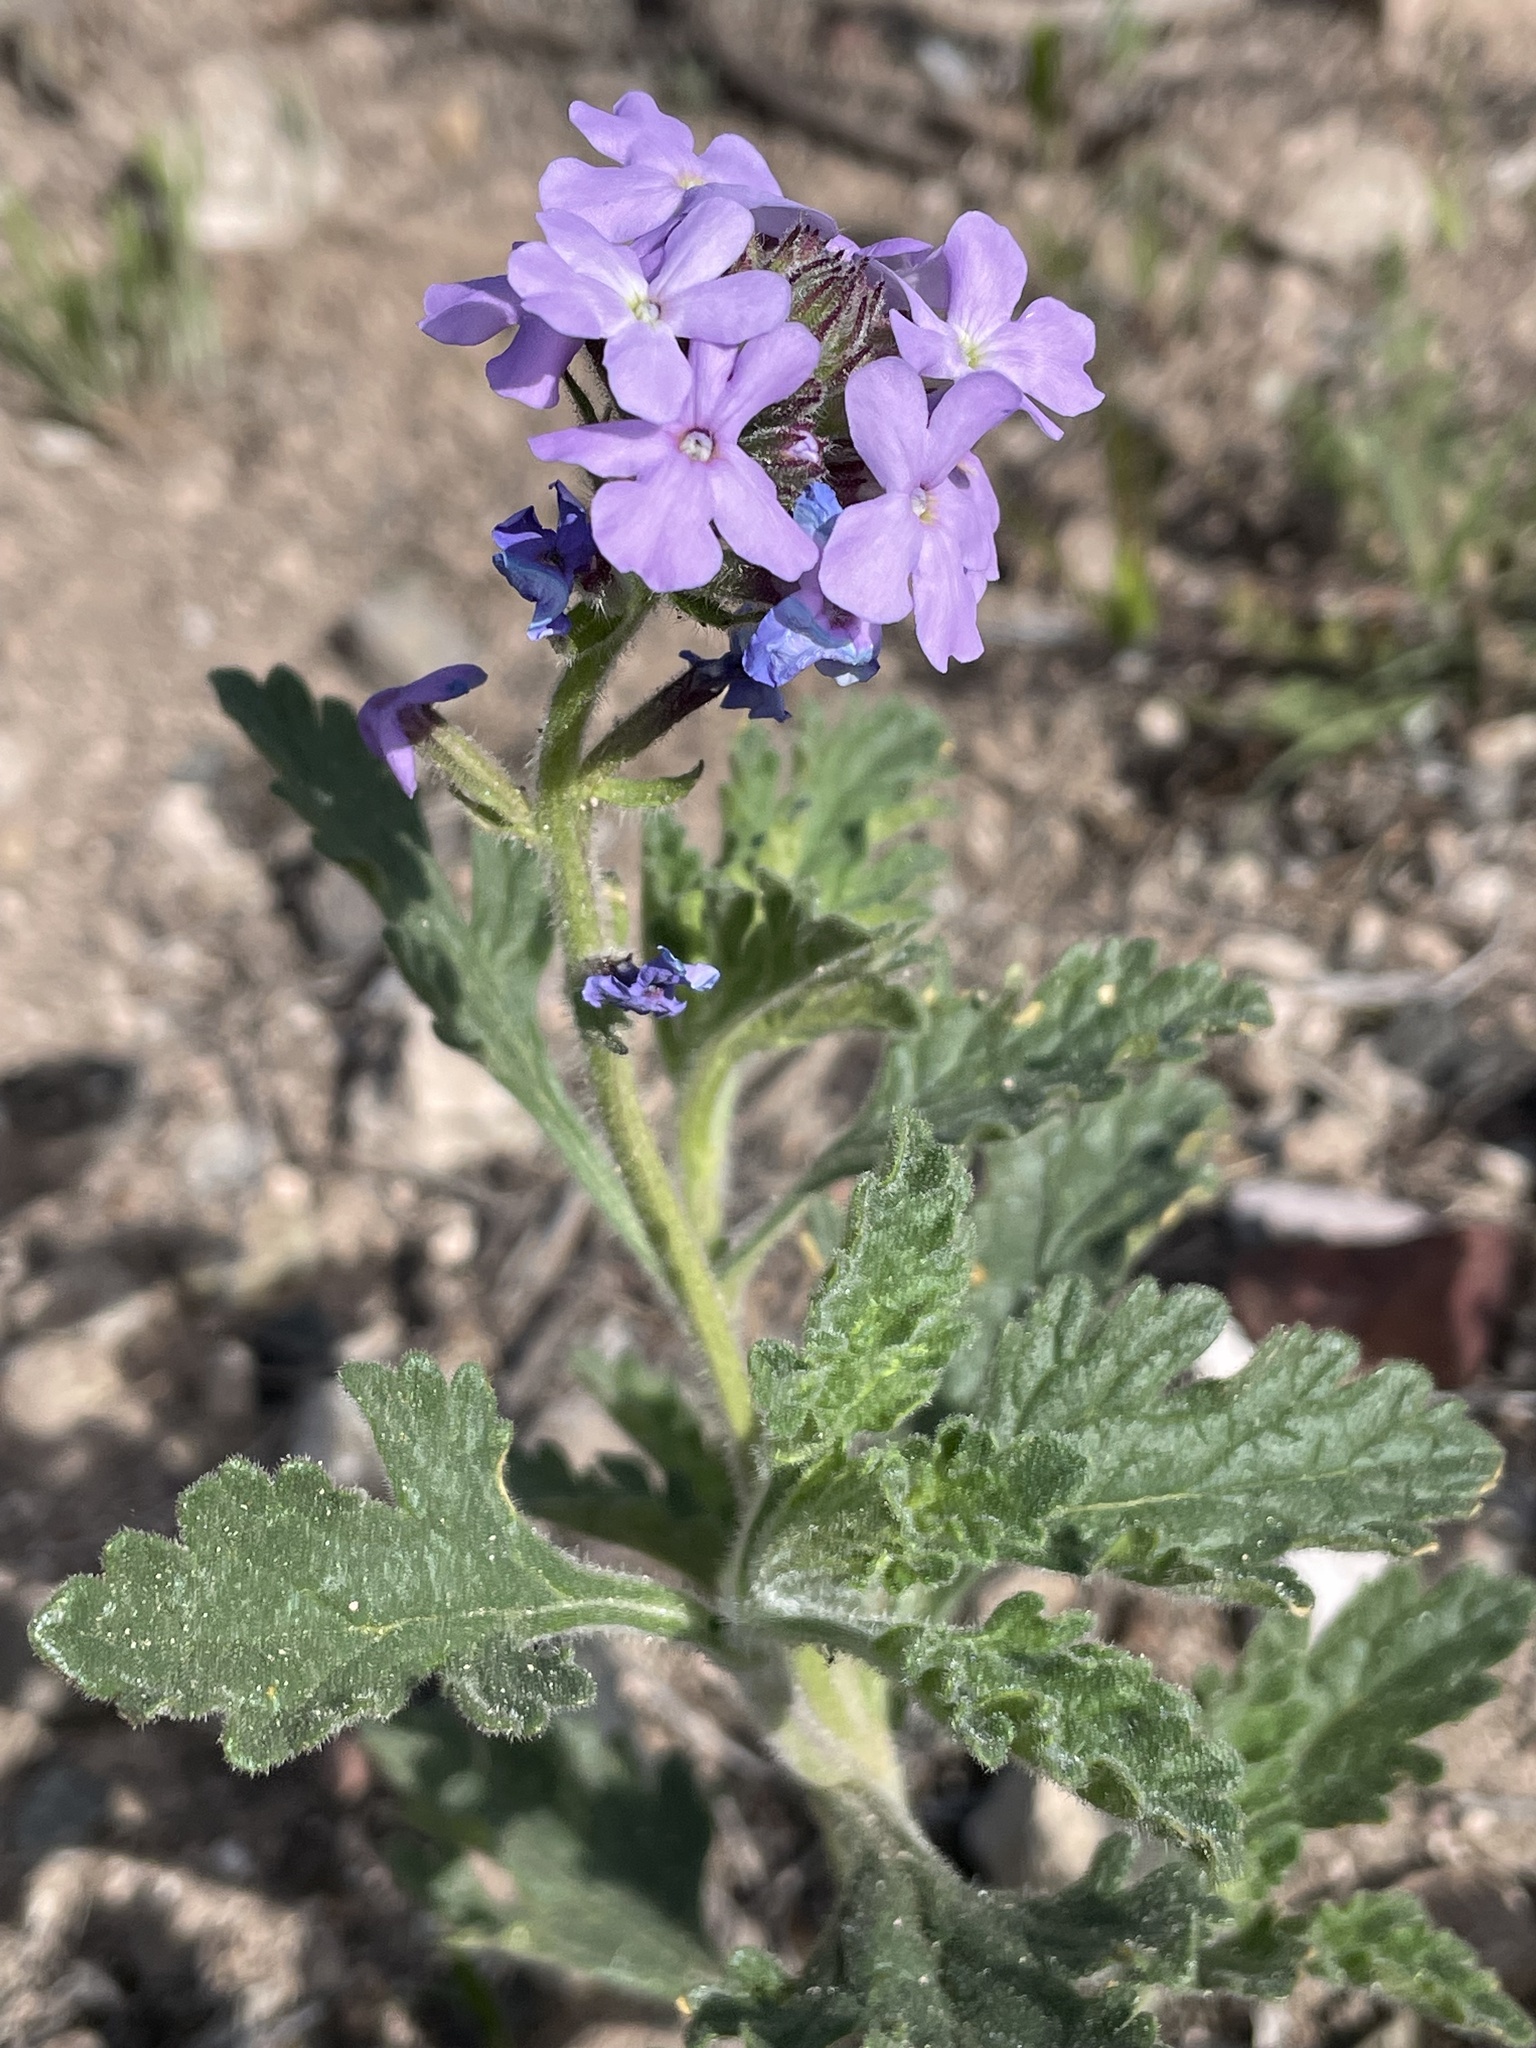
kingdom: Plantae
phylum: Tracheophyta
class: Magnoliopsida
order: Lamiales
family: Verbenaceae
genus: Verbena
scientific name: Verbena gooddingii
